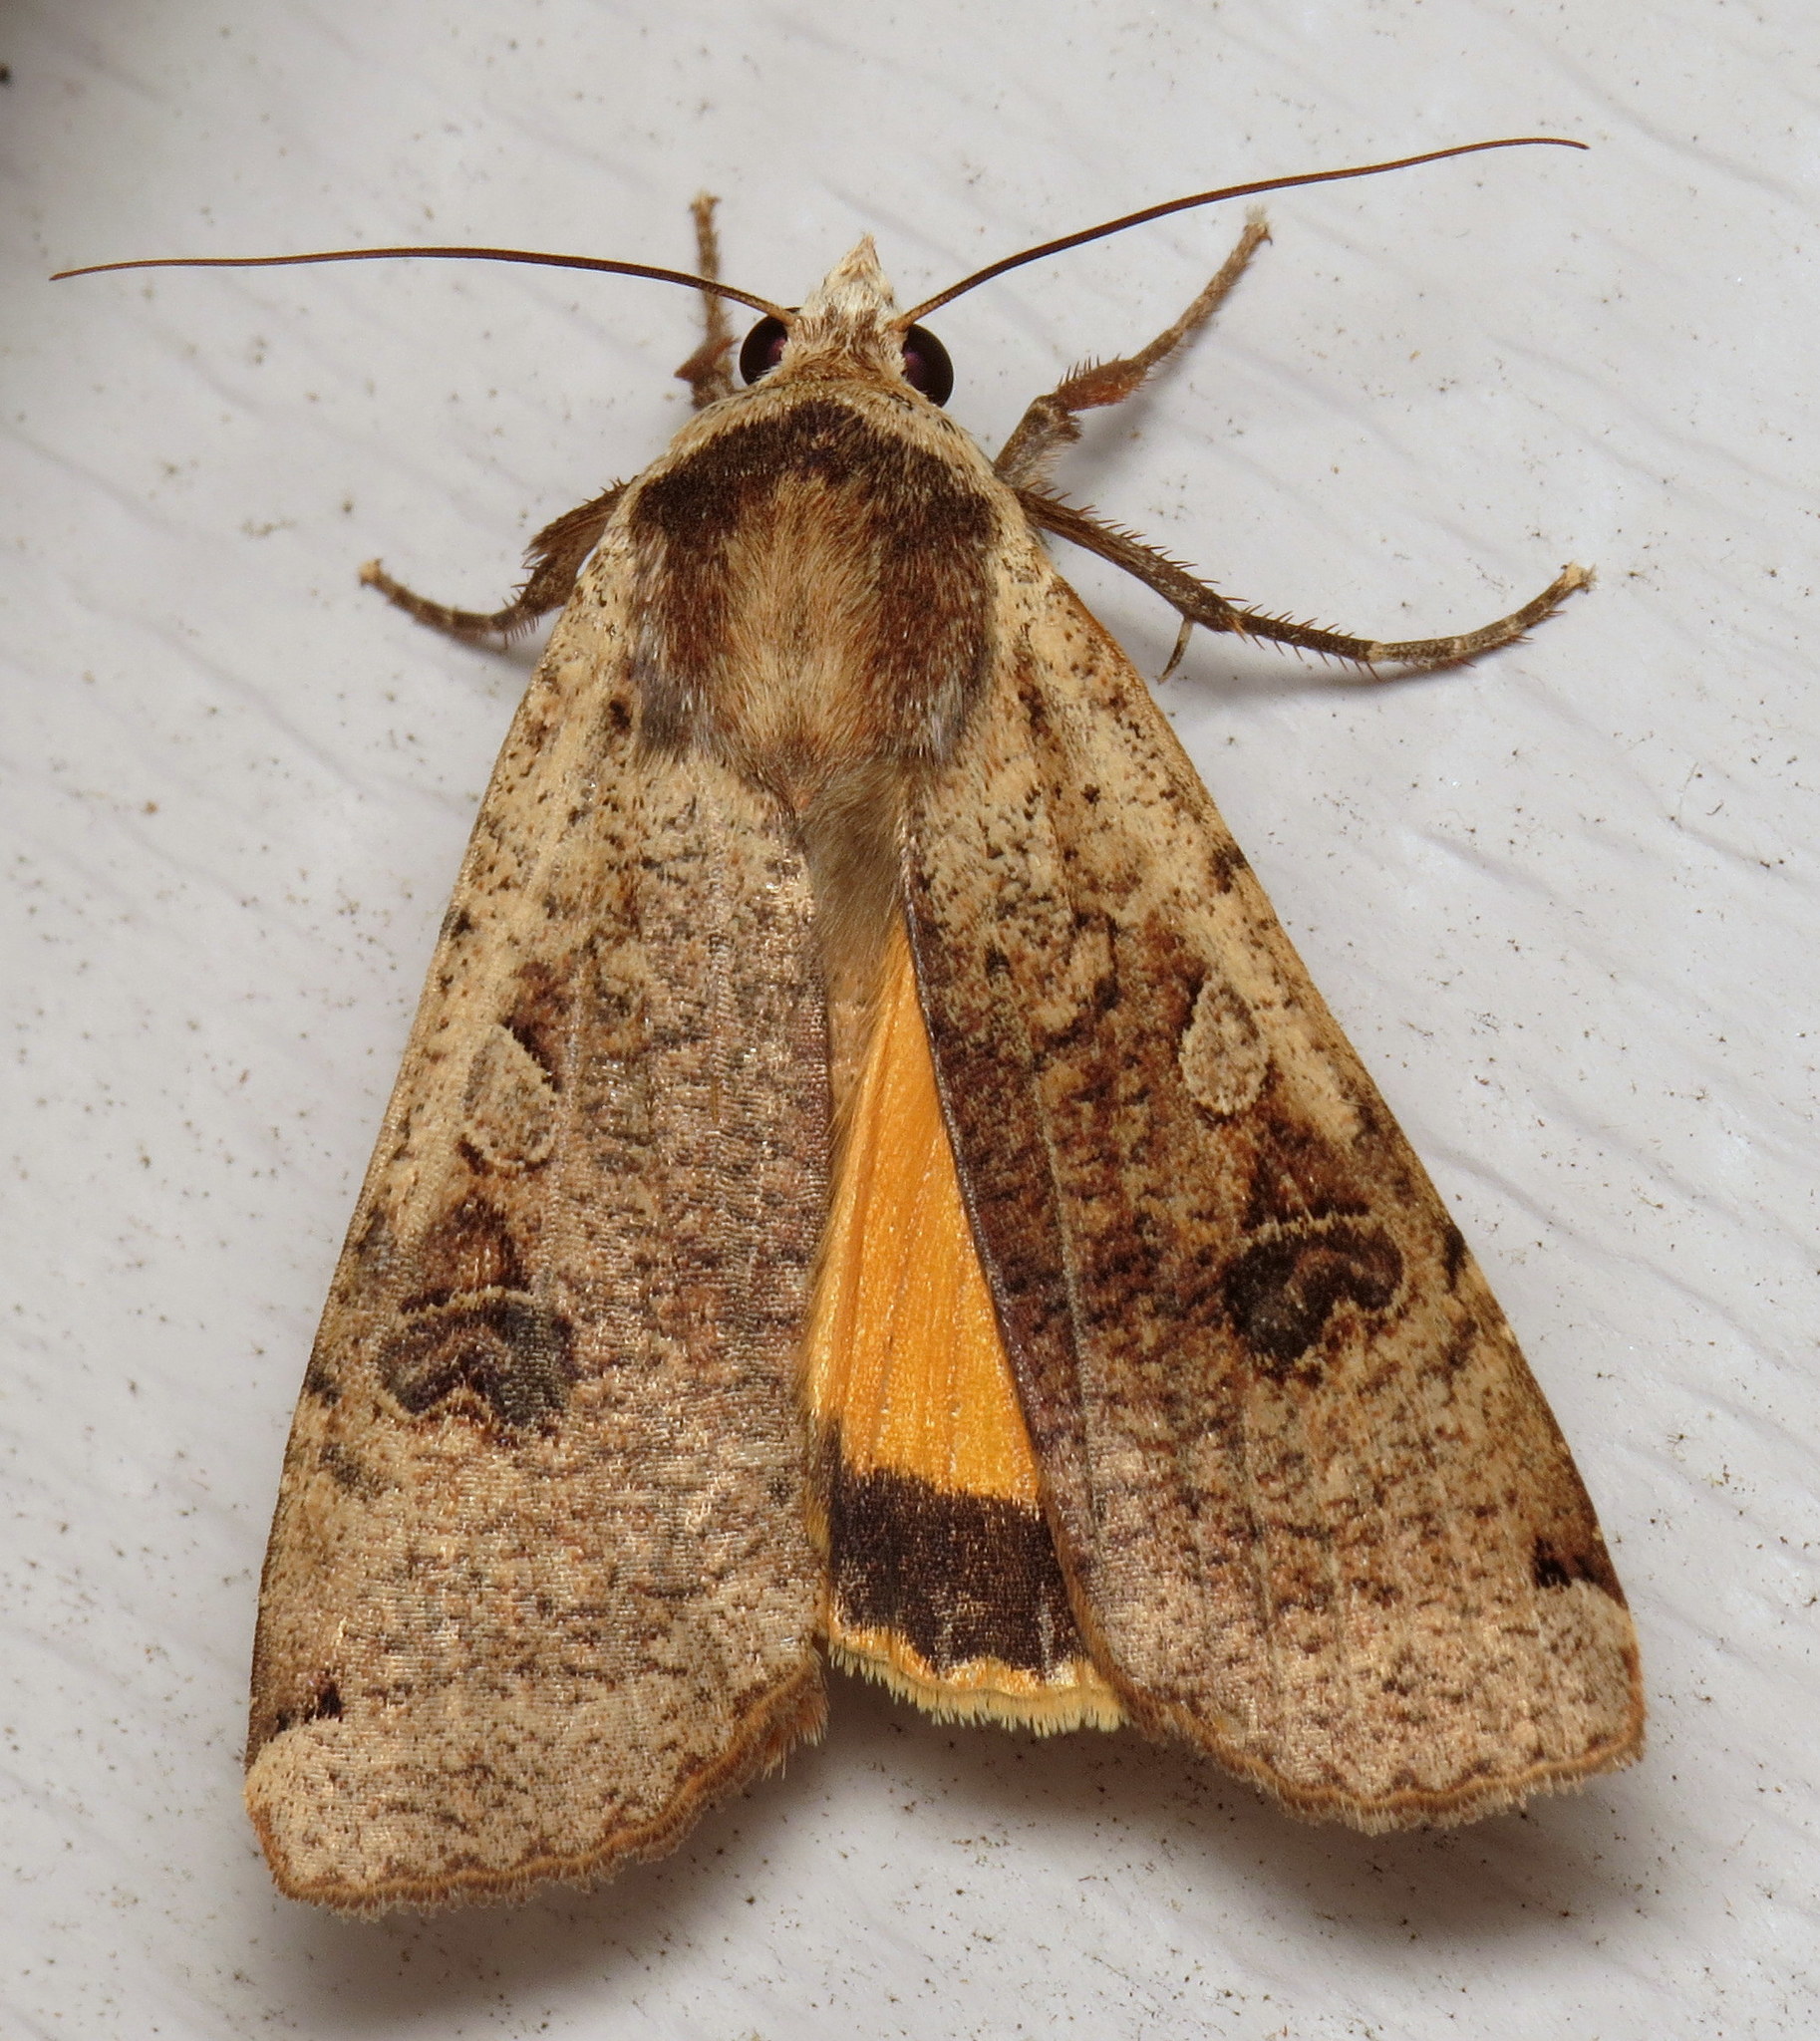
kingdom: Animalia
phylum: Arthropoda
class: Insecta
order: Lepidoptera
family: Noctuidae
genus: Noctua
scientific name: Noctua pronuba
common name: Large yellow underwing
